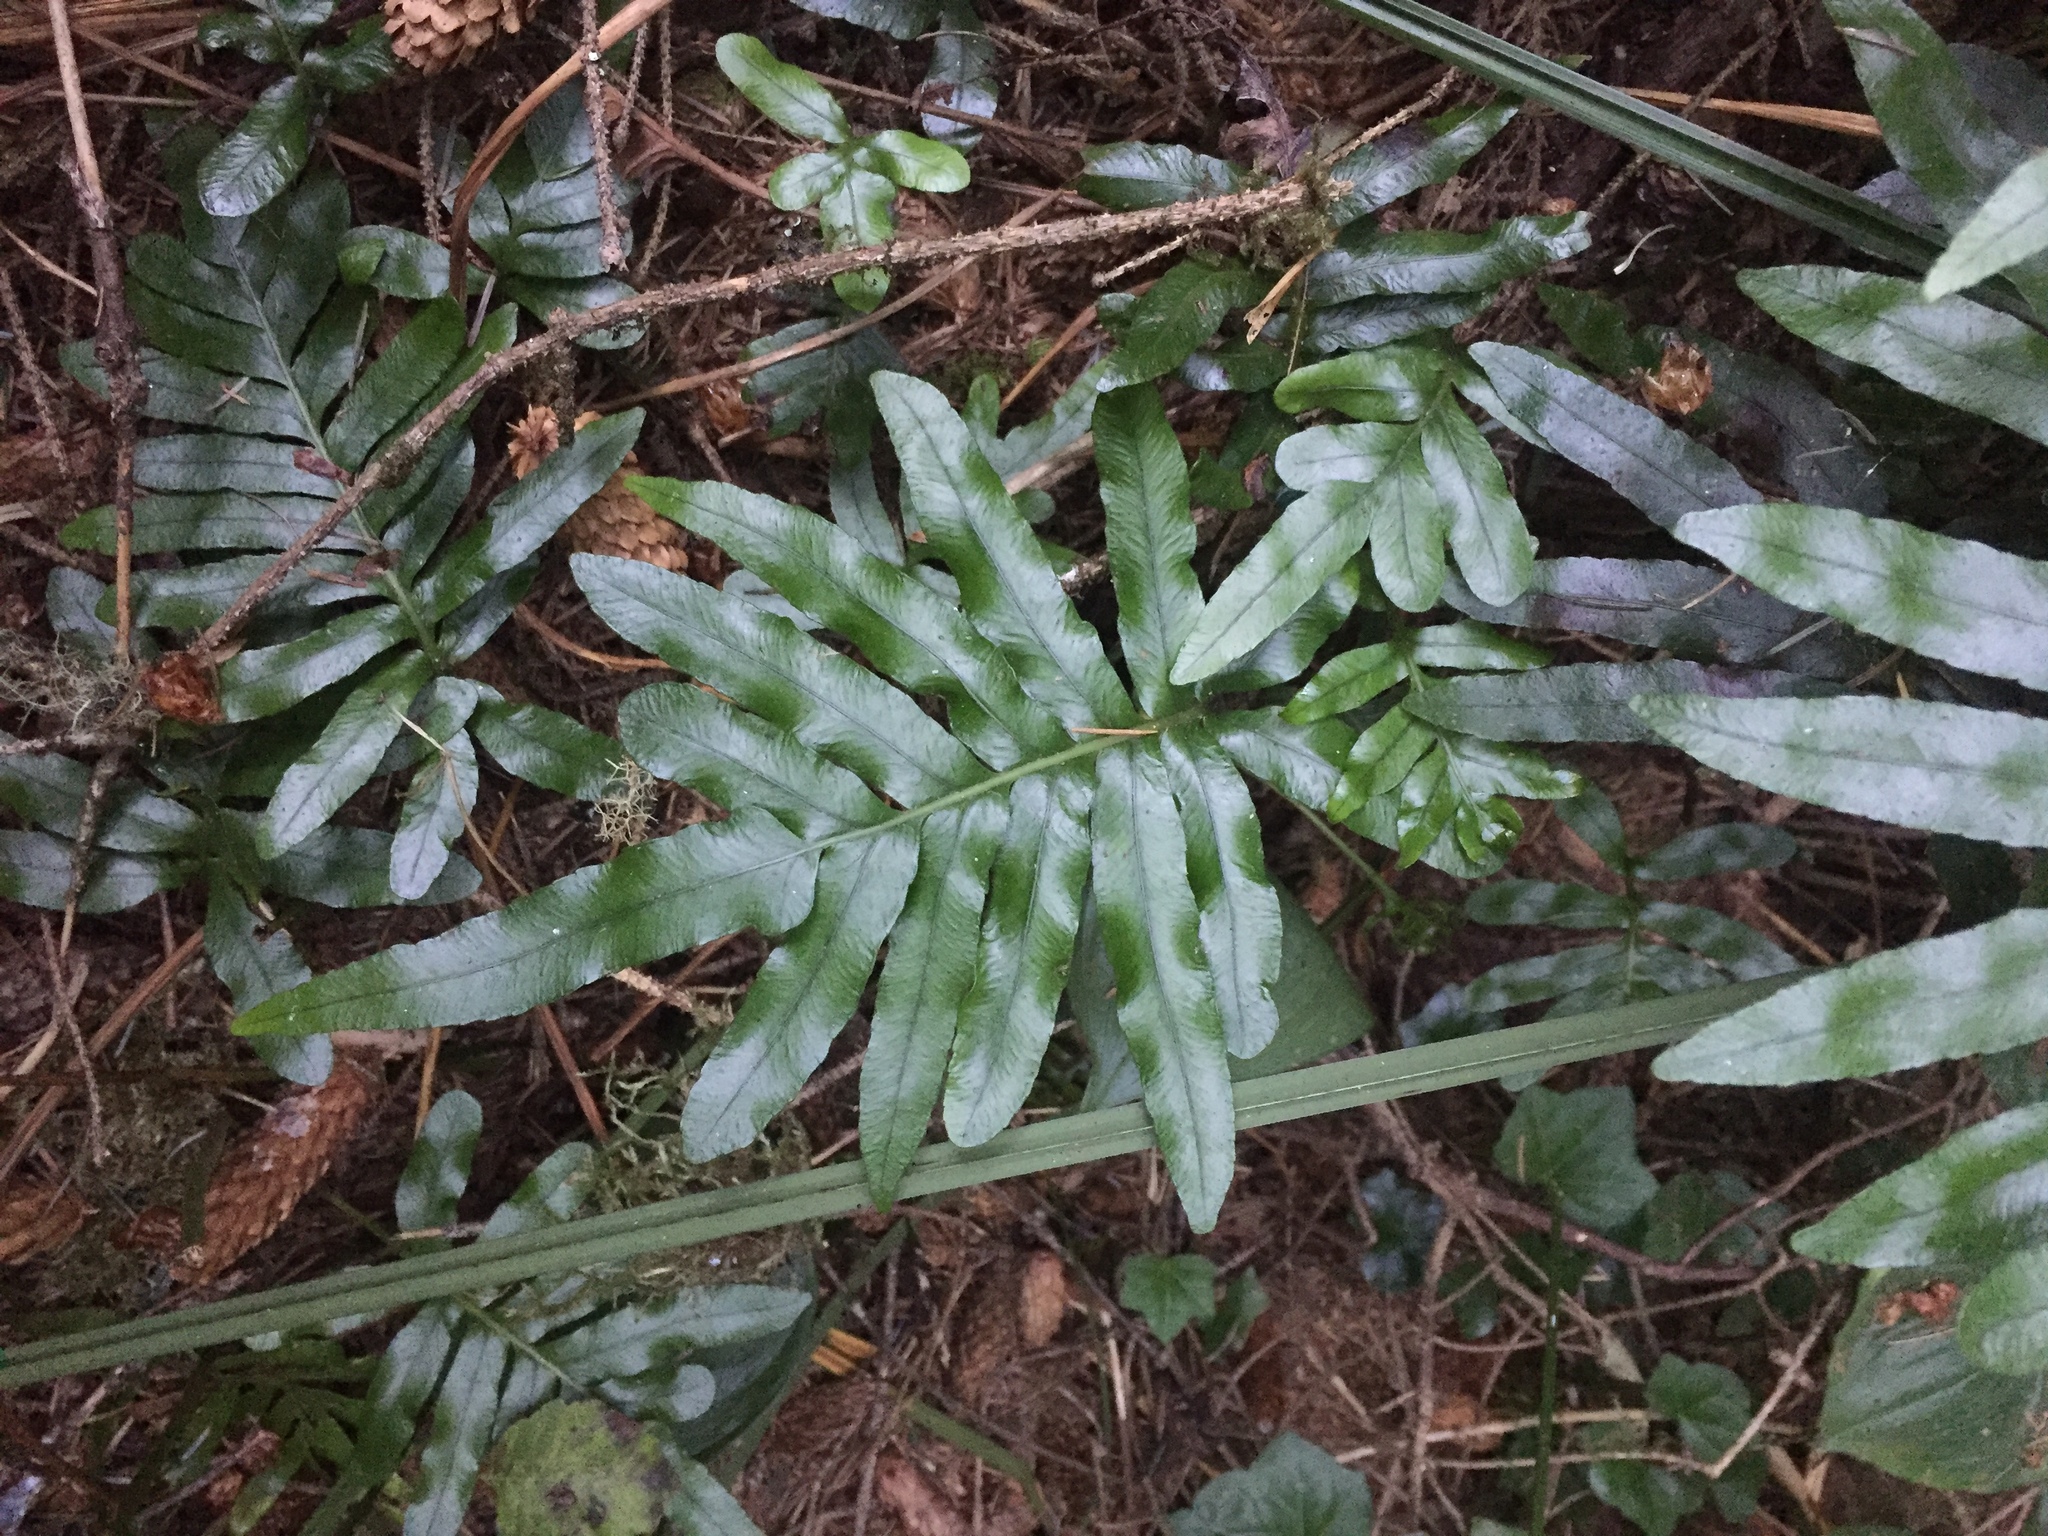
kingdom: Plantae
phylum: Tracheophyta
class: Polypodiopsida
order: Polypodiales
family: Polypodiaceae
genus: Polypodium
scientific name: Polypodium scouleri
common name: Scouler's polypody
